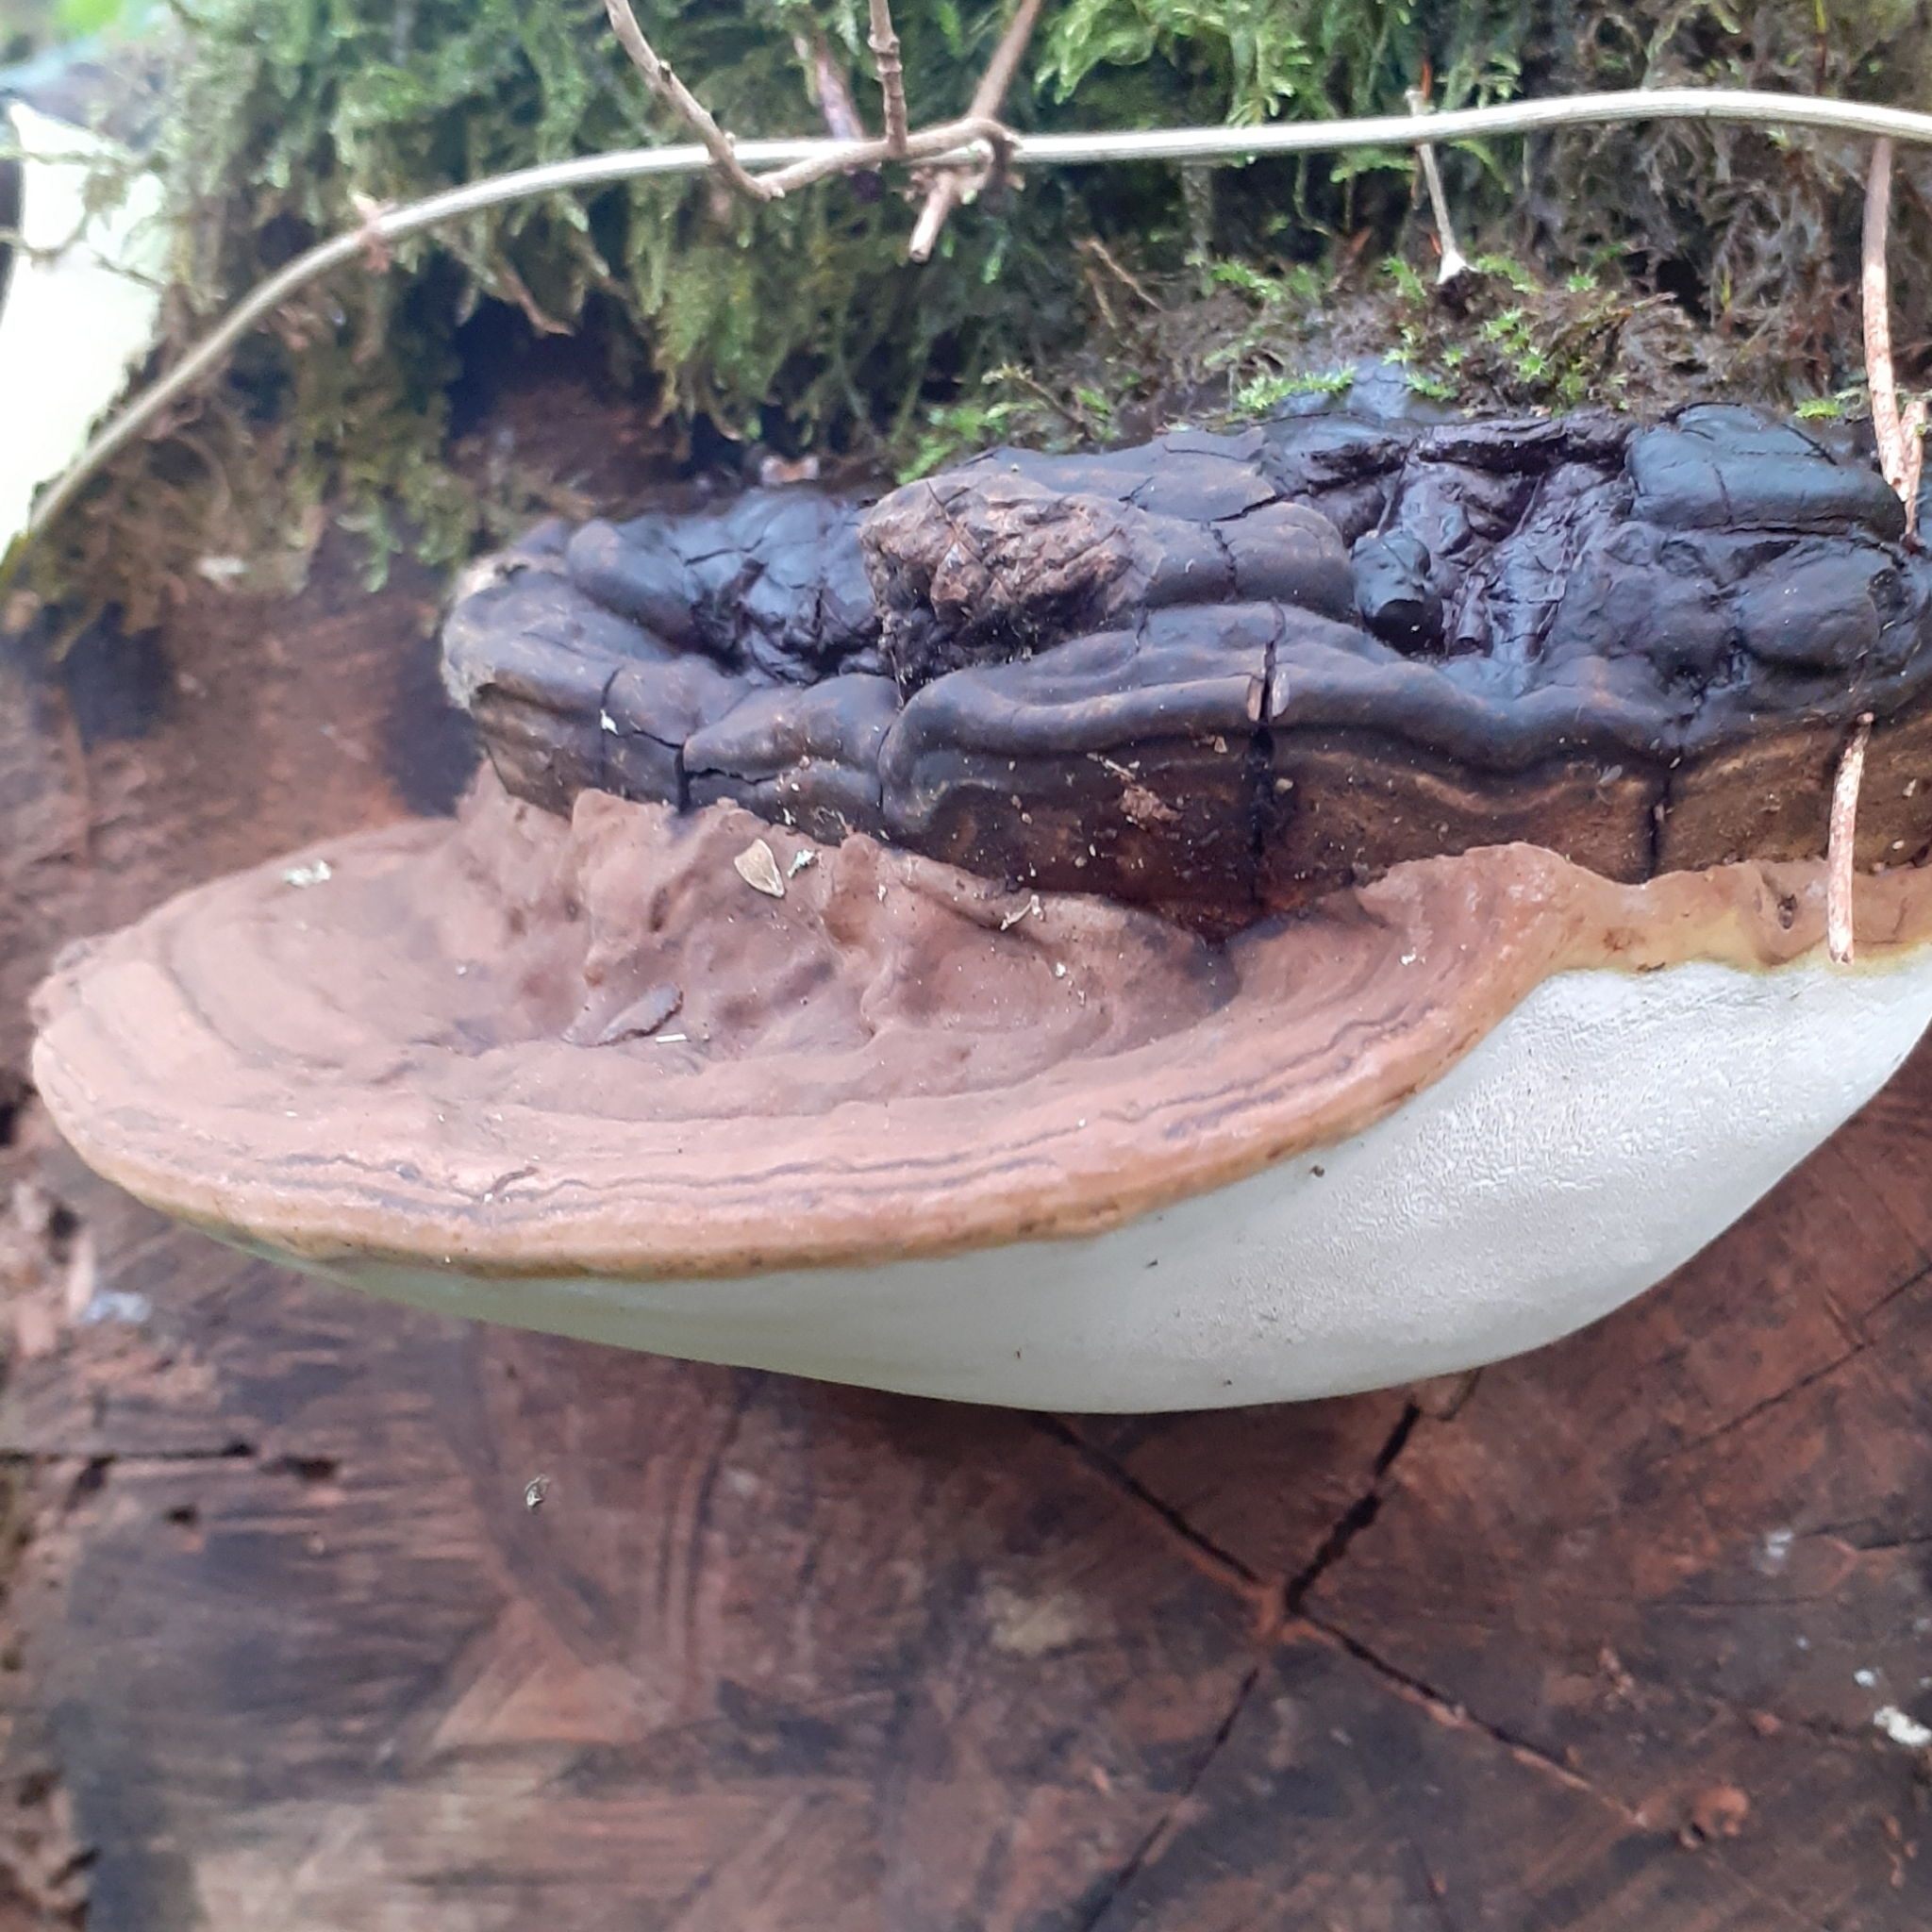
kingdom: Fungi
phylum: Basidiomycota
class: Agaricomycetes
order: Polyporales
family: Polyporaceae
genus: Ganoderma
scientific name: Ganoderma applanatum
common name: Artist's bracket
